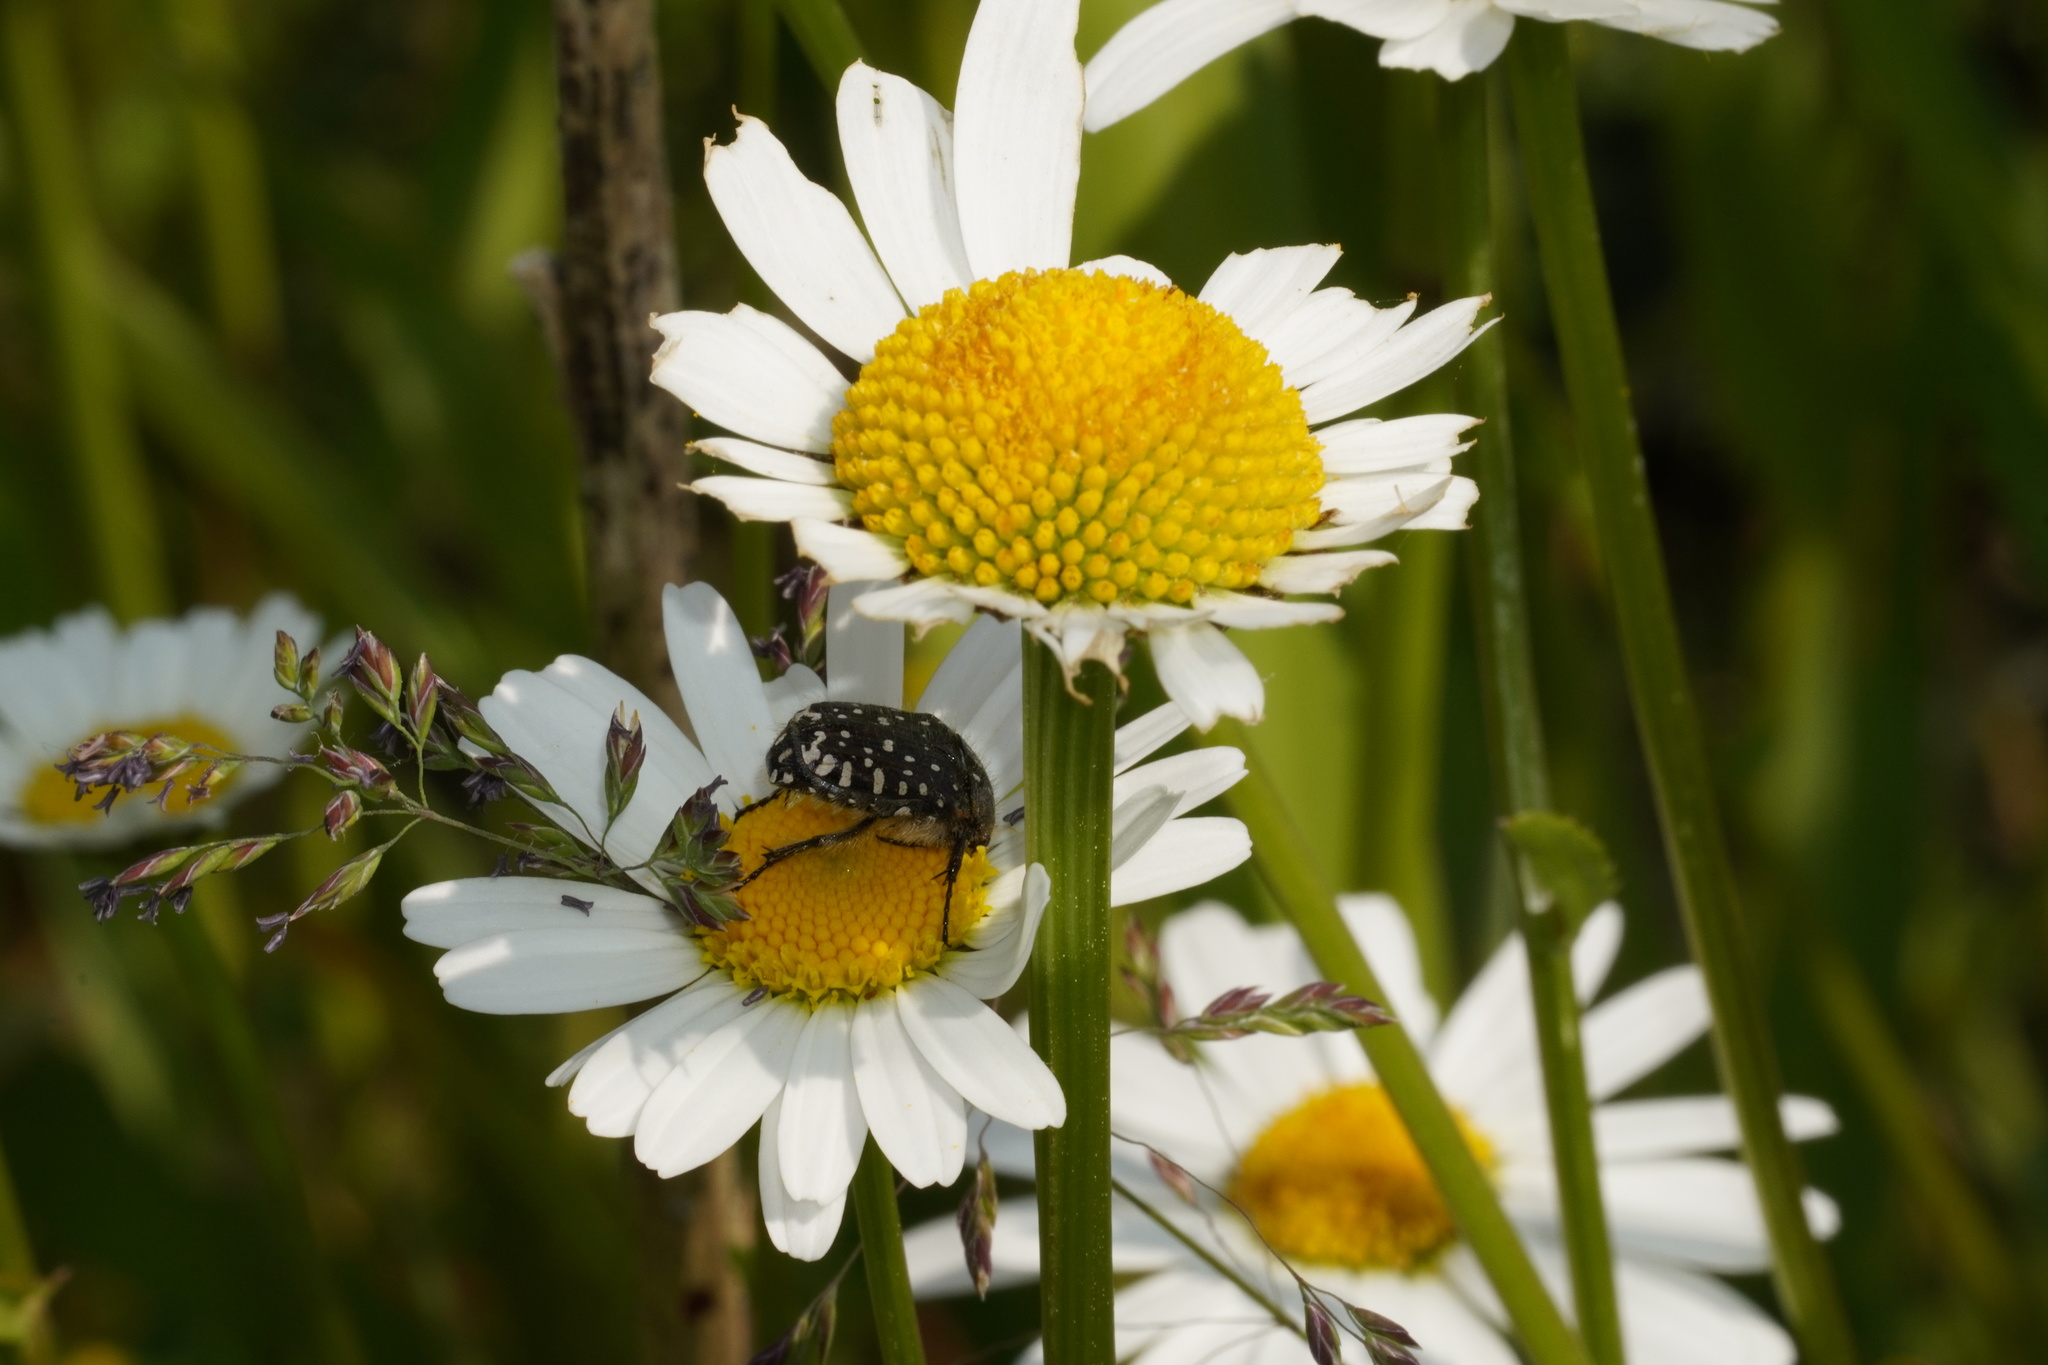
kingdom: Animalia
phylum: Arthropoda
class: Insecta
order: Coleoptera
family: Scarabaeidae
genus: Oxythyrea
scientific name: Oxythyrea funesta
